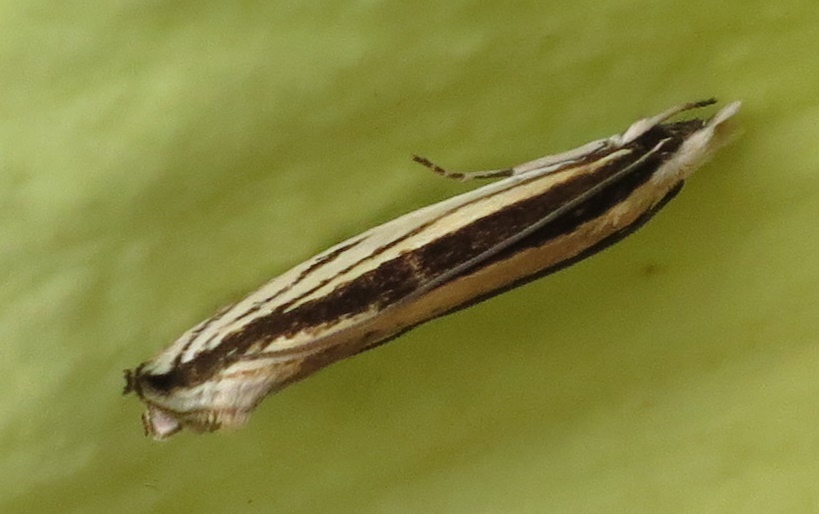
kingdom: Animalia
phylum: Arthropoda
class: Insecta
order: Lepidoptera
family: Tineidae
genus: Erechthias
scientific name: Erechthias stilbella
